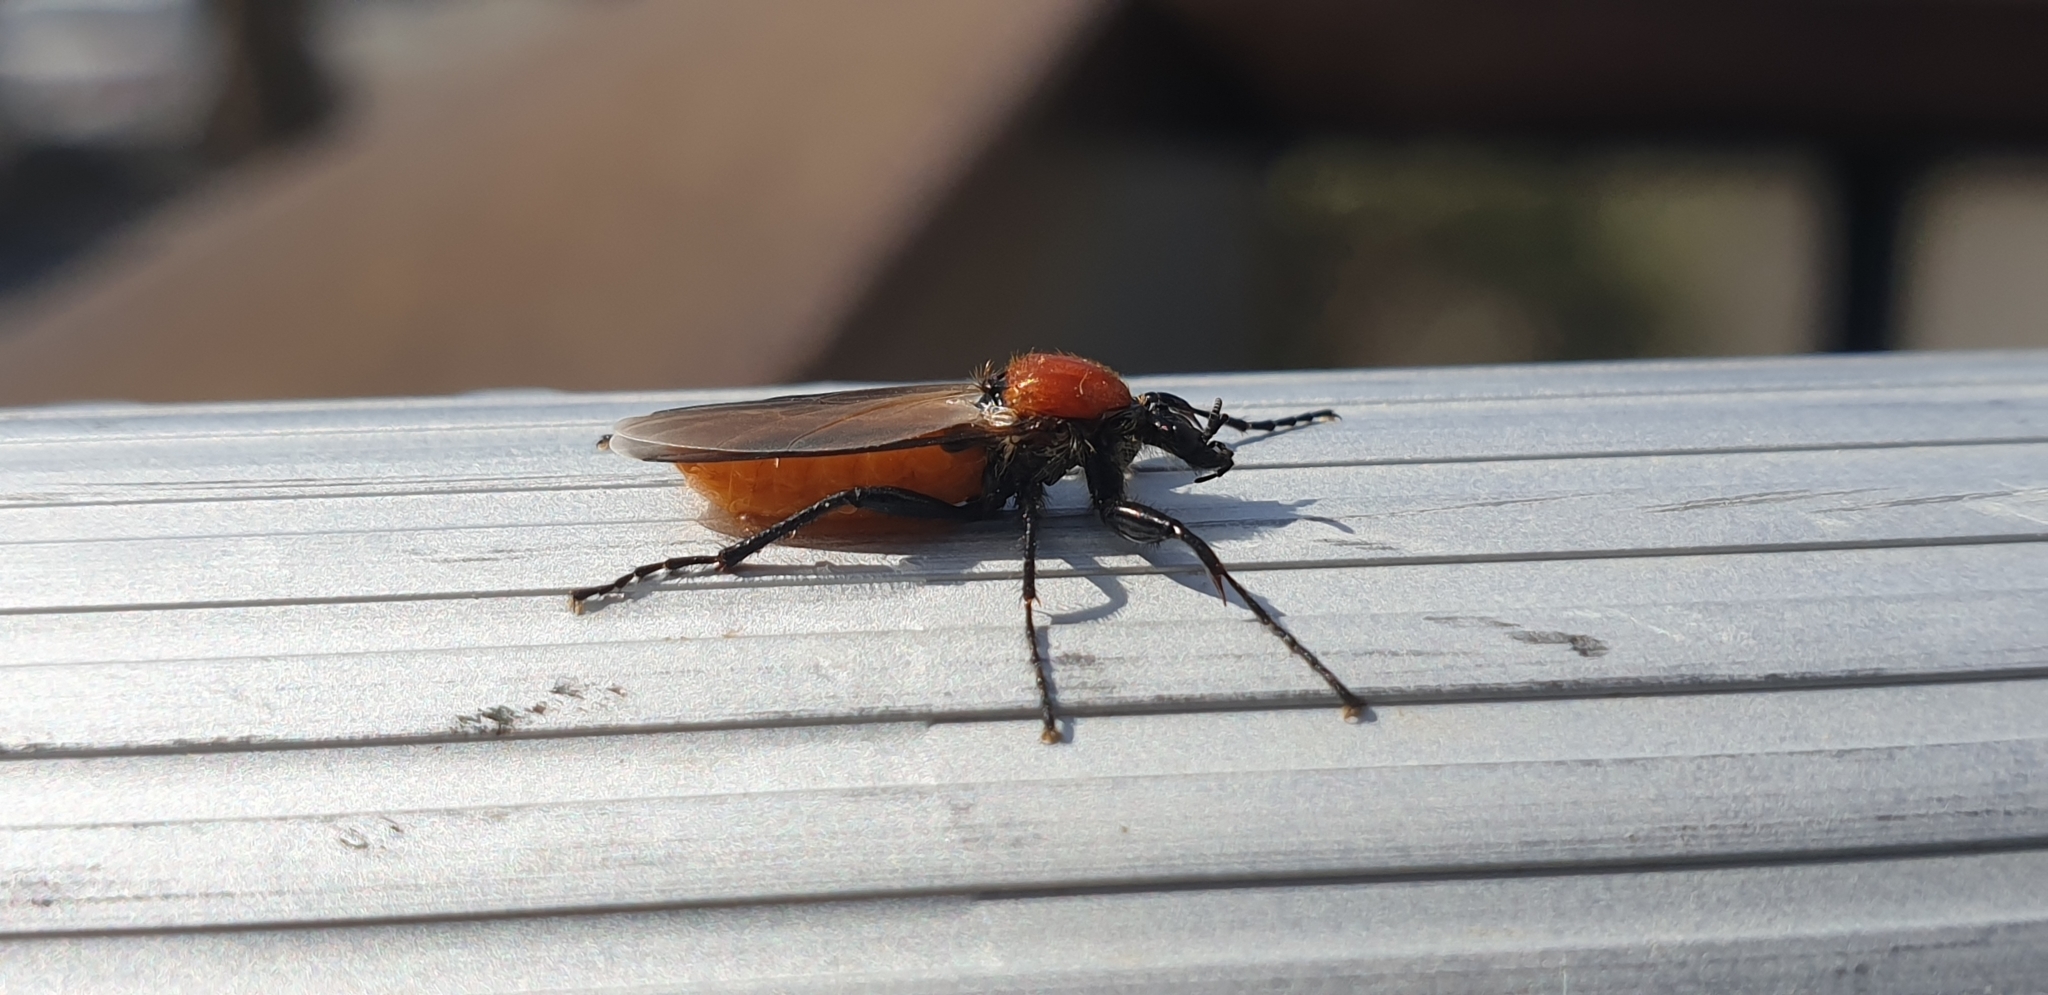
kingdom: Animalia
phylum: Arthropoda
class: Insecta
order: Diptera
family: Bibionidae
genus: Bibio
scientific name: Bibio hortulanus
